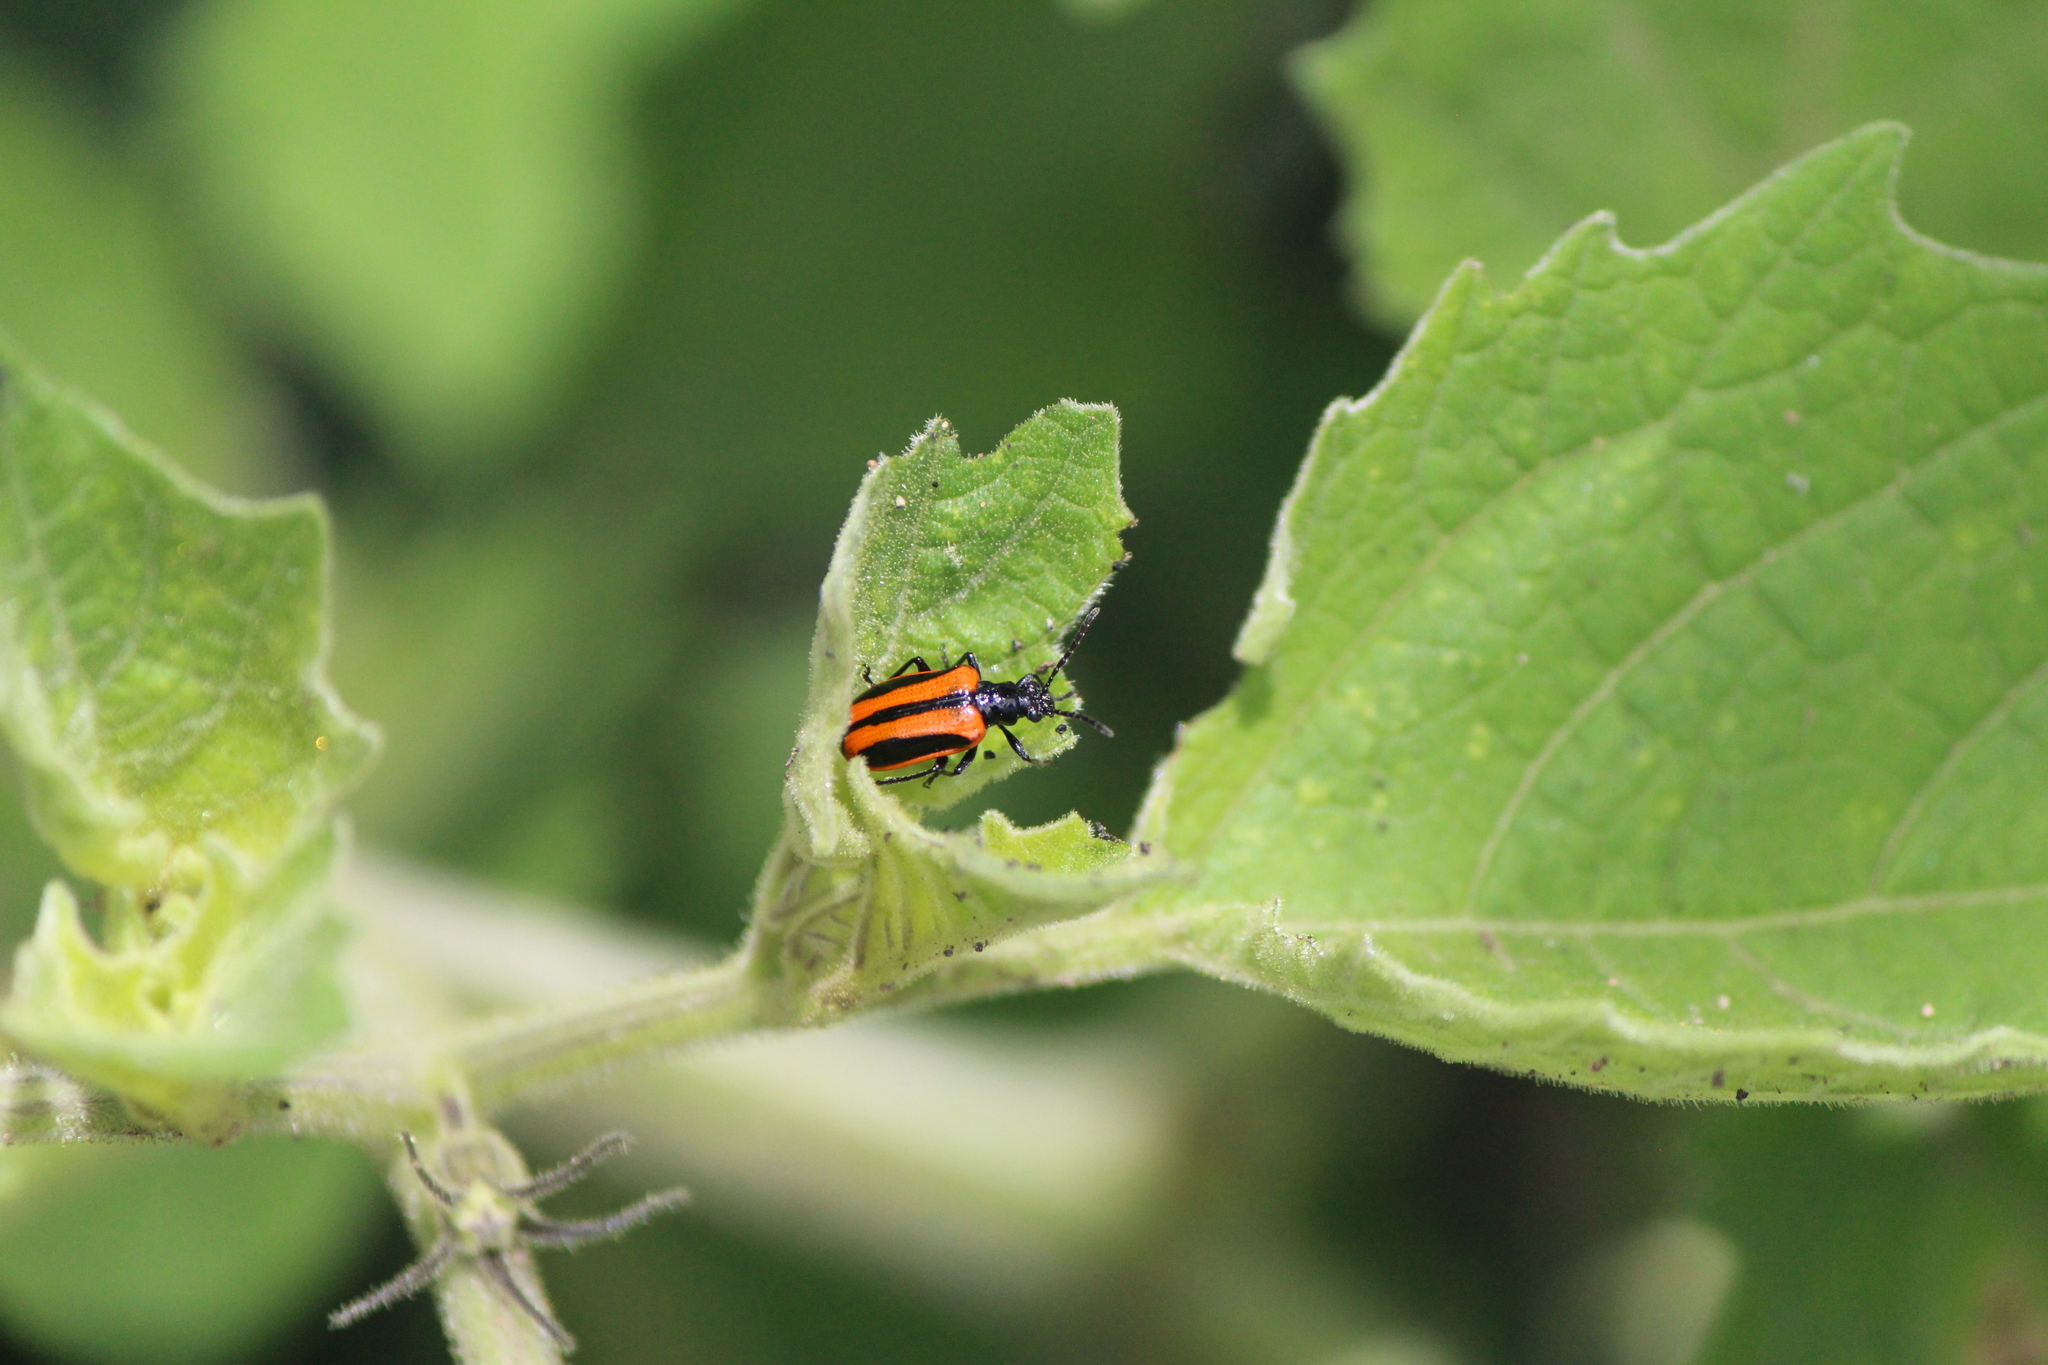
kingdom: Animalia
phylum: Arthropoda
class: Insecta
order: Coleoptera
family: Chrysomelidae
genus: Lema
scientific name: Lema confusa
